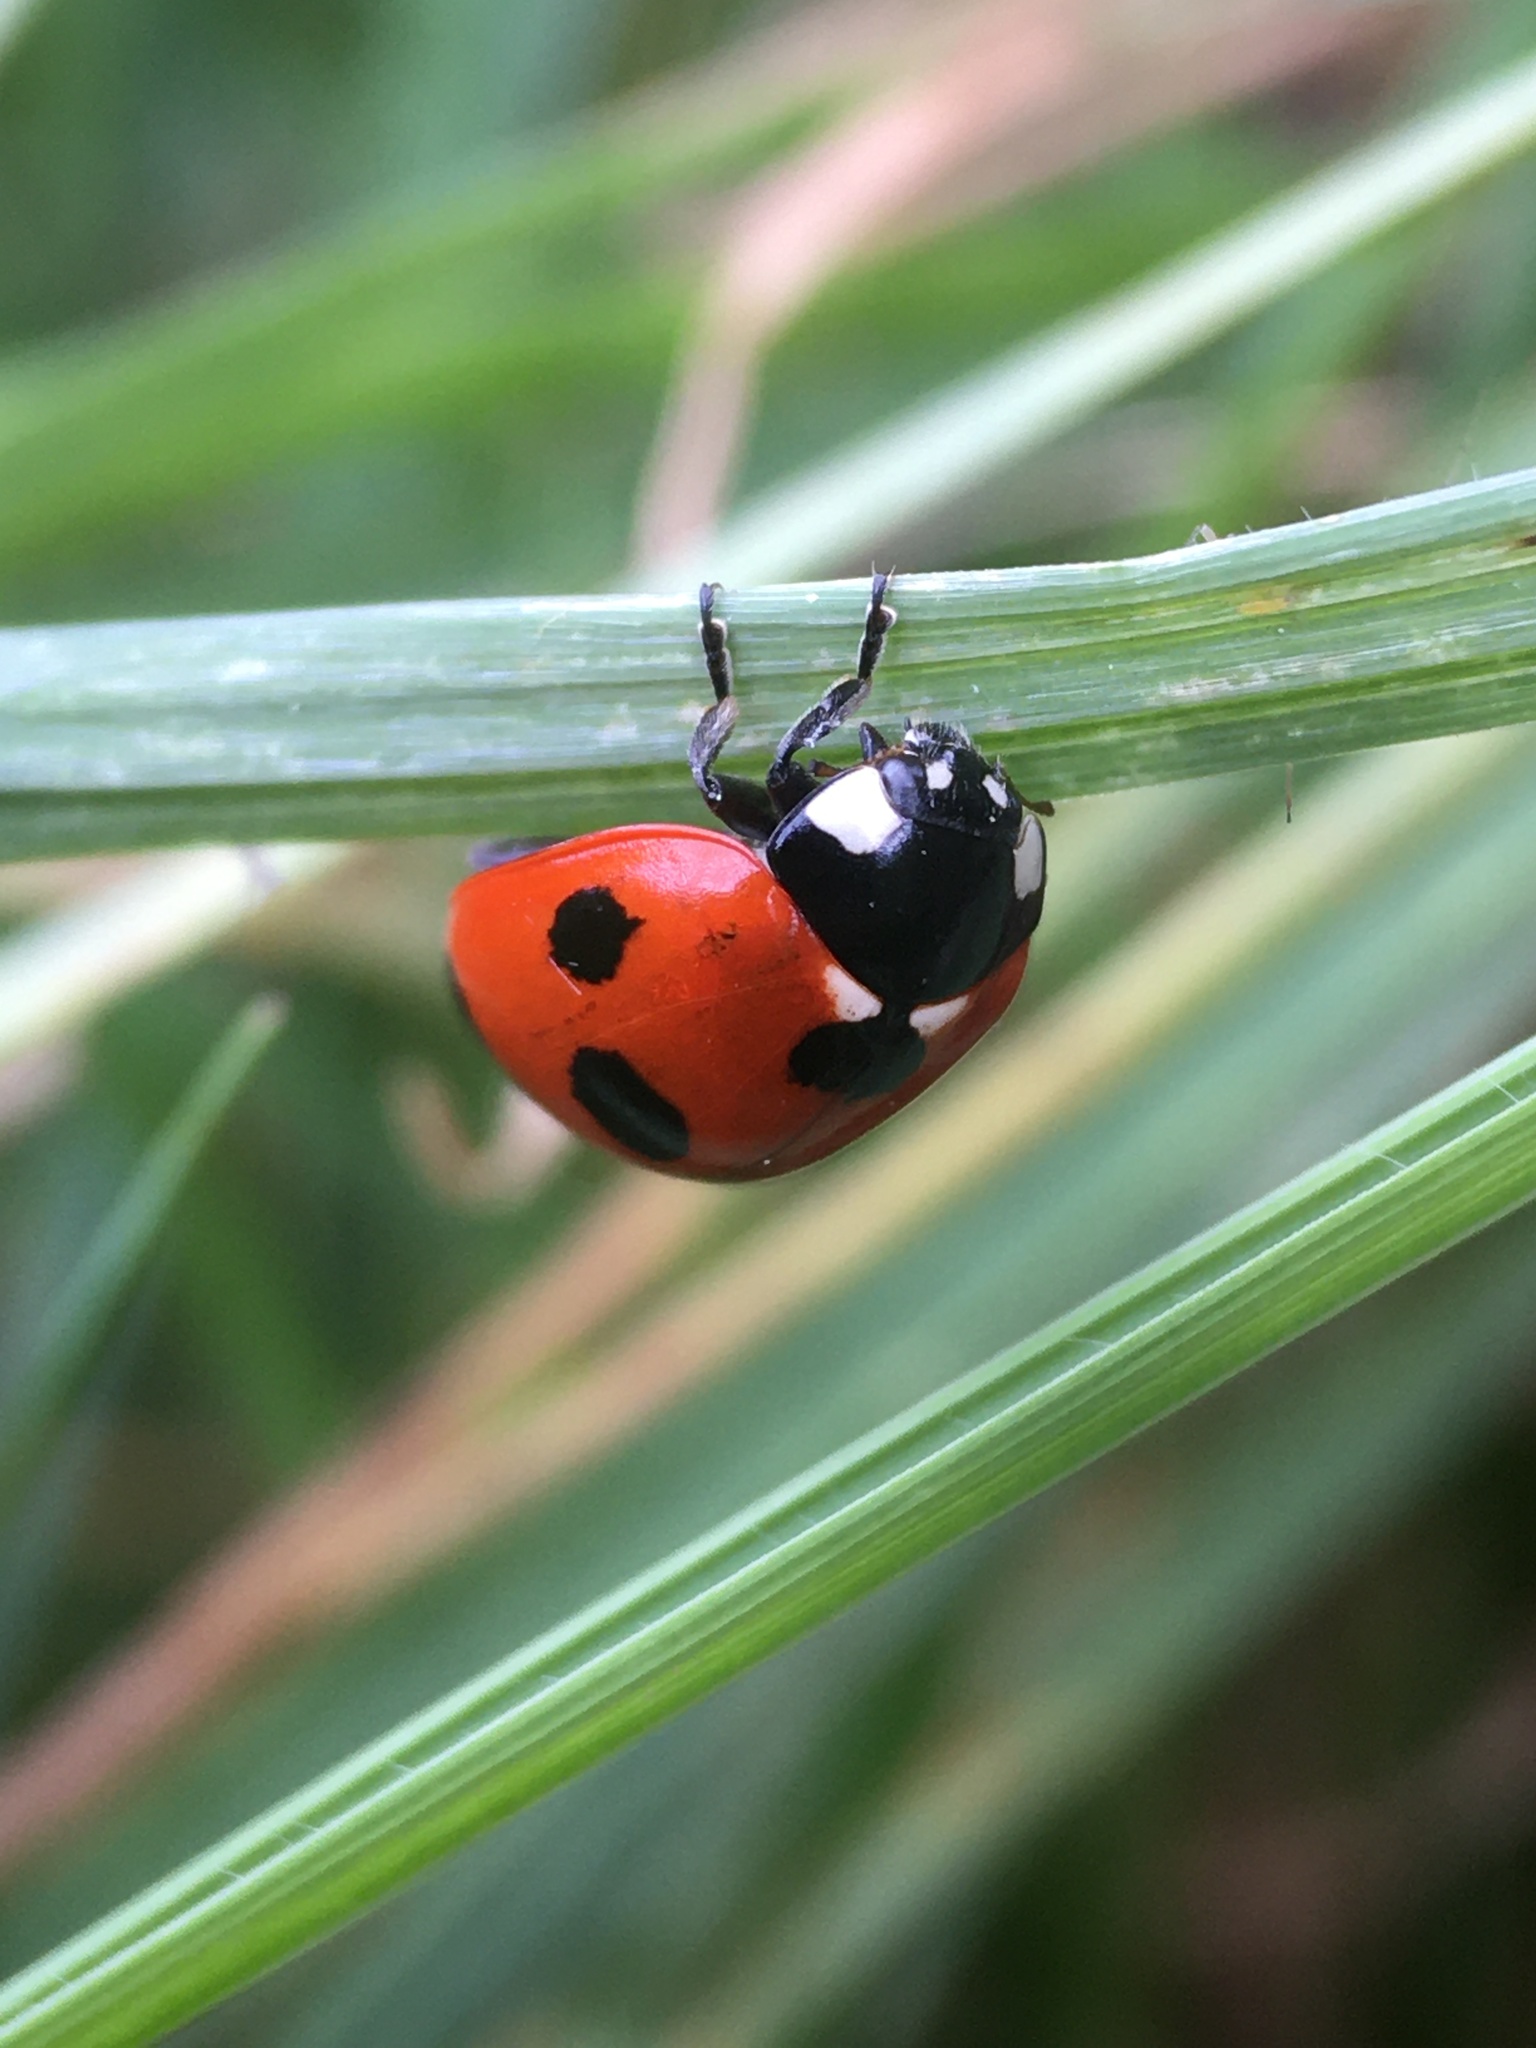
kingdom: Animalia
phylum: Arthropoda
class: Insecta
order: Coleoptera
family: Coccinellidae
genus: Coccinella
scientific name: Coccinella septempunctata
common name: Sevenspotted lady beetle
